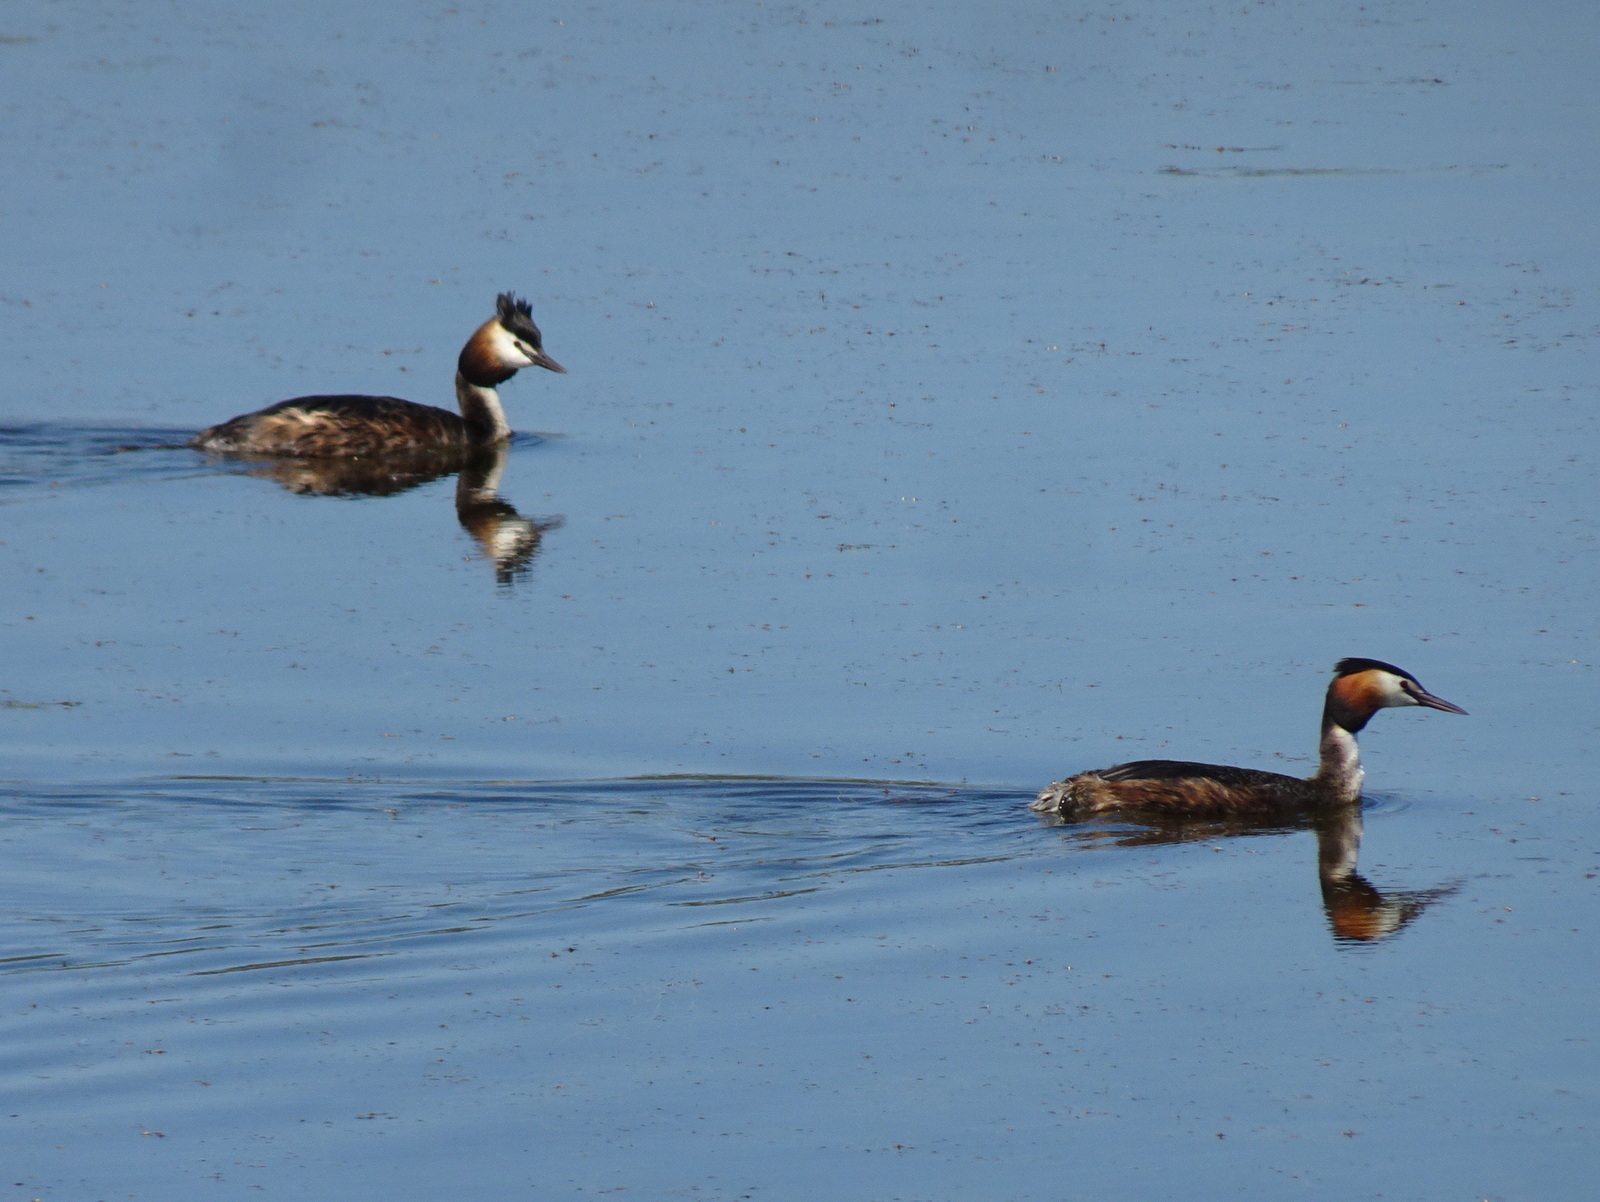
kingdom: Animalia
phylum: Chordata
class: Aves
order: Podicipediformes
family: Podicipedidae
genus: Podiceps
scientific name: Podiceps cristatus
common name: Great crested grebe
